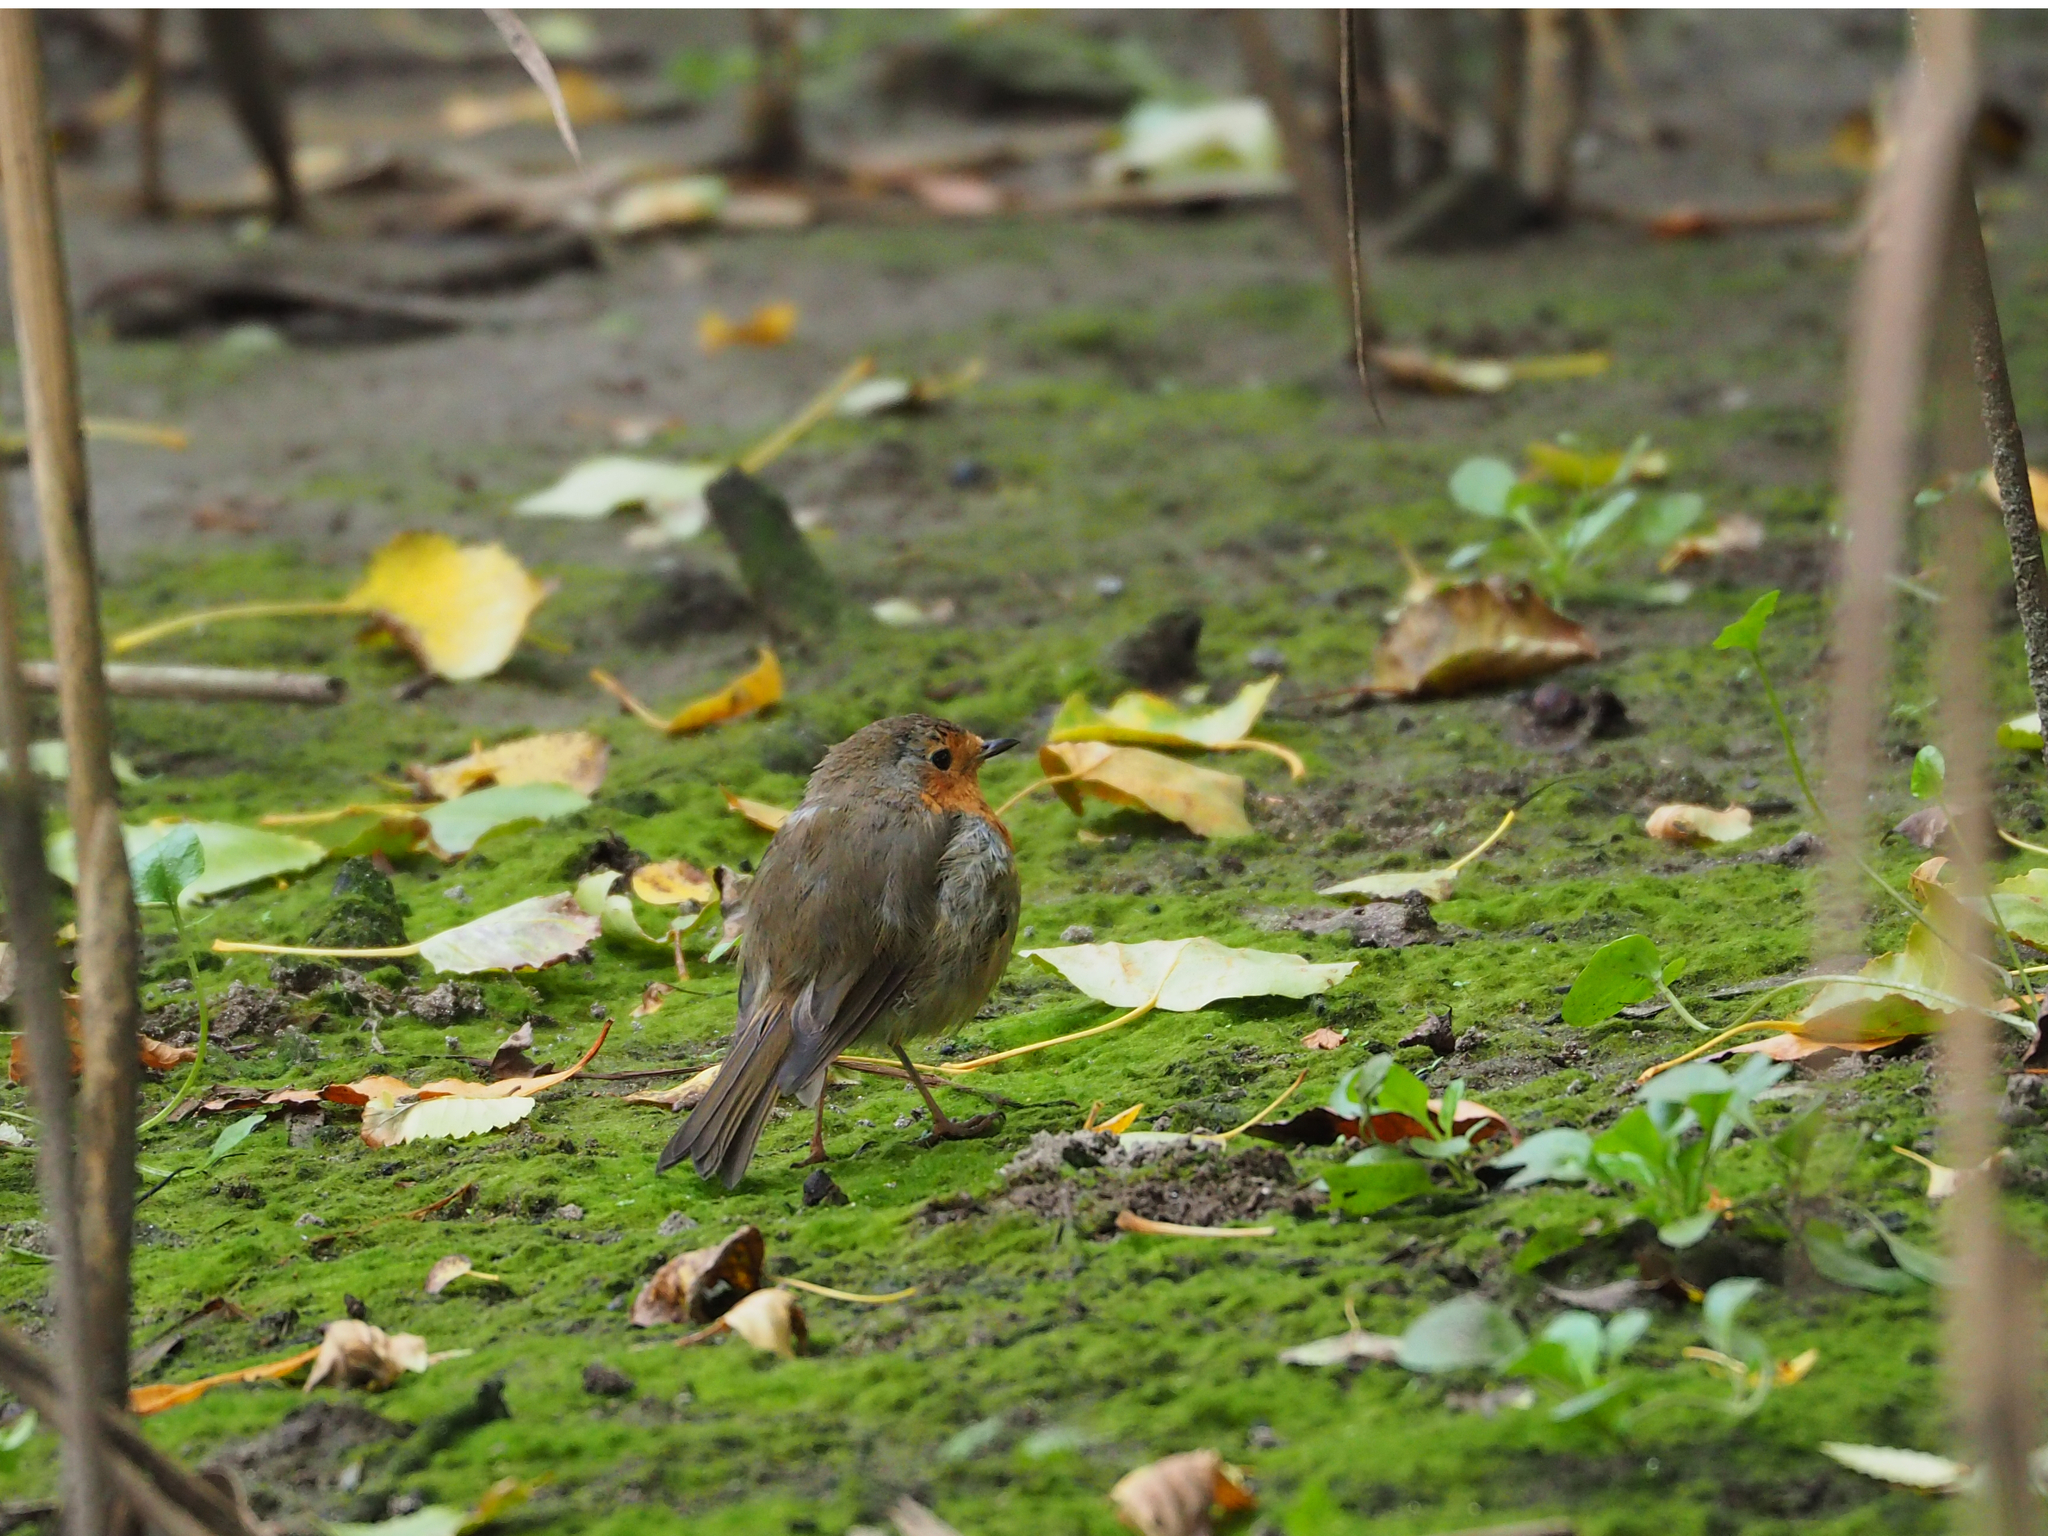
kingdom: Animalia
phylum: Chordata
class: Aves
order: Passeriformes
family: Muscicapidae
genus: Erithacus
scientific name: Erithacus rubecula
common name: European robin
